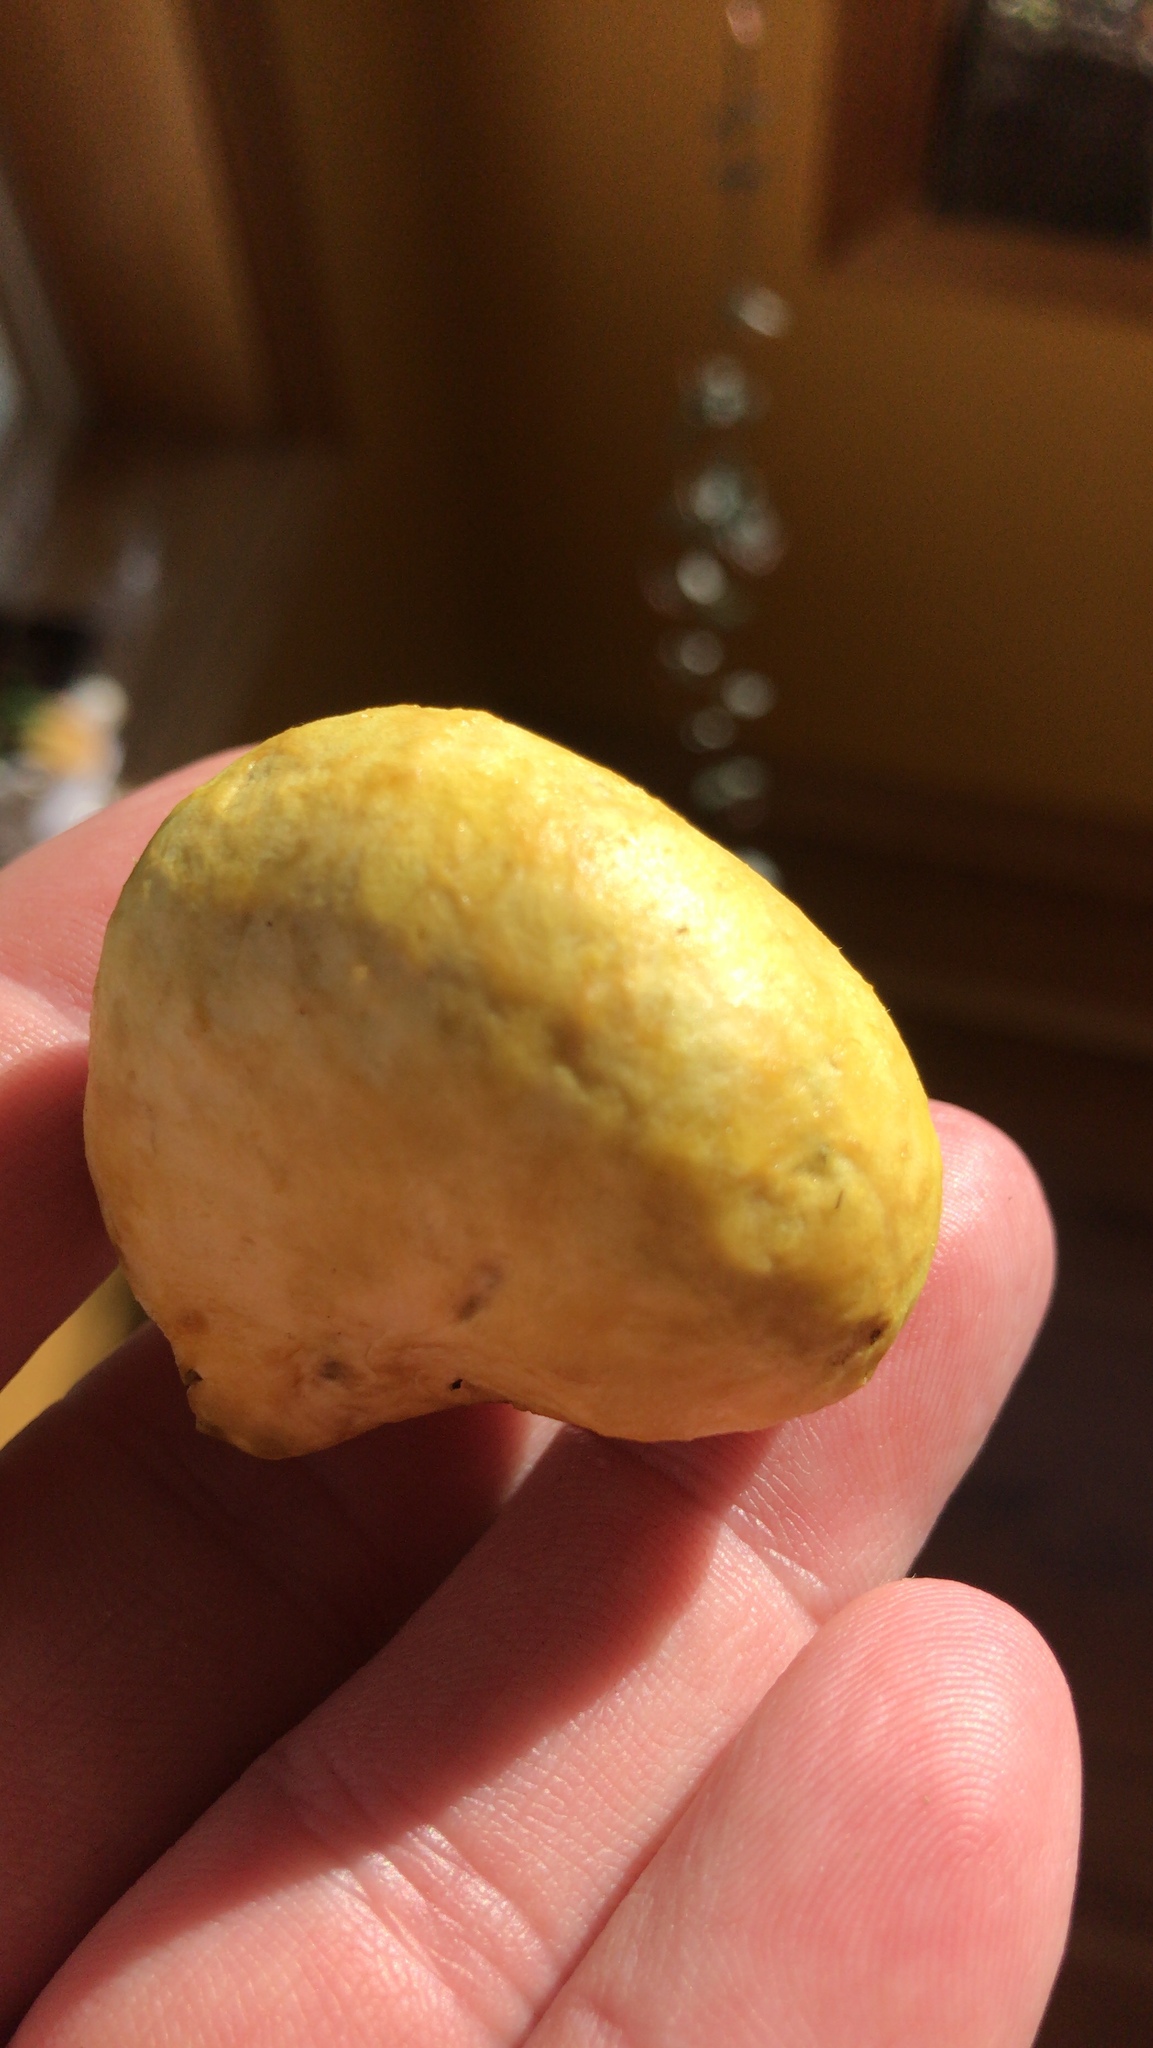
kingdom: Fungi
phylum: Basidiomycota
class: Agaricomycetes
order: Boletales
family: Suillaceae
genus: Truncocolumella
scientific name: Truncocolumella citrina
